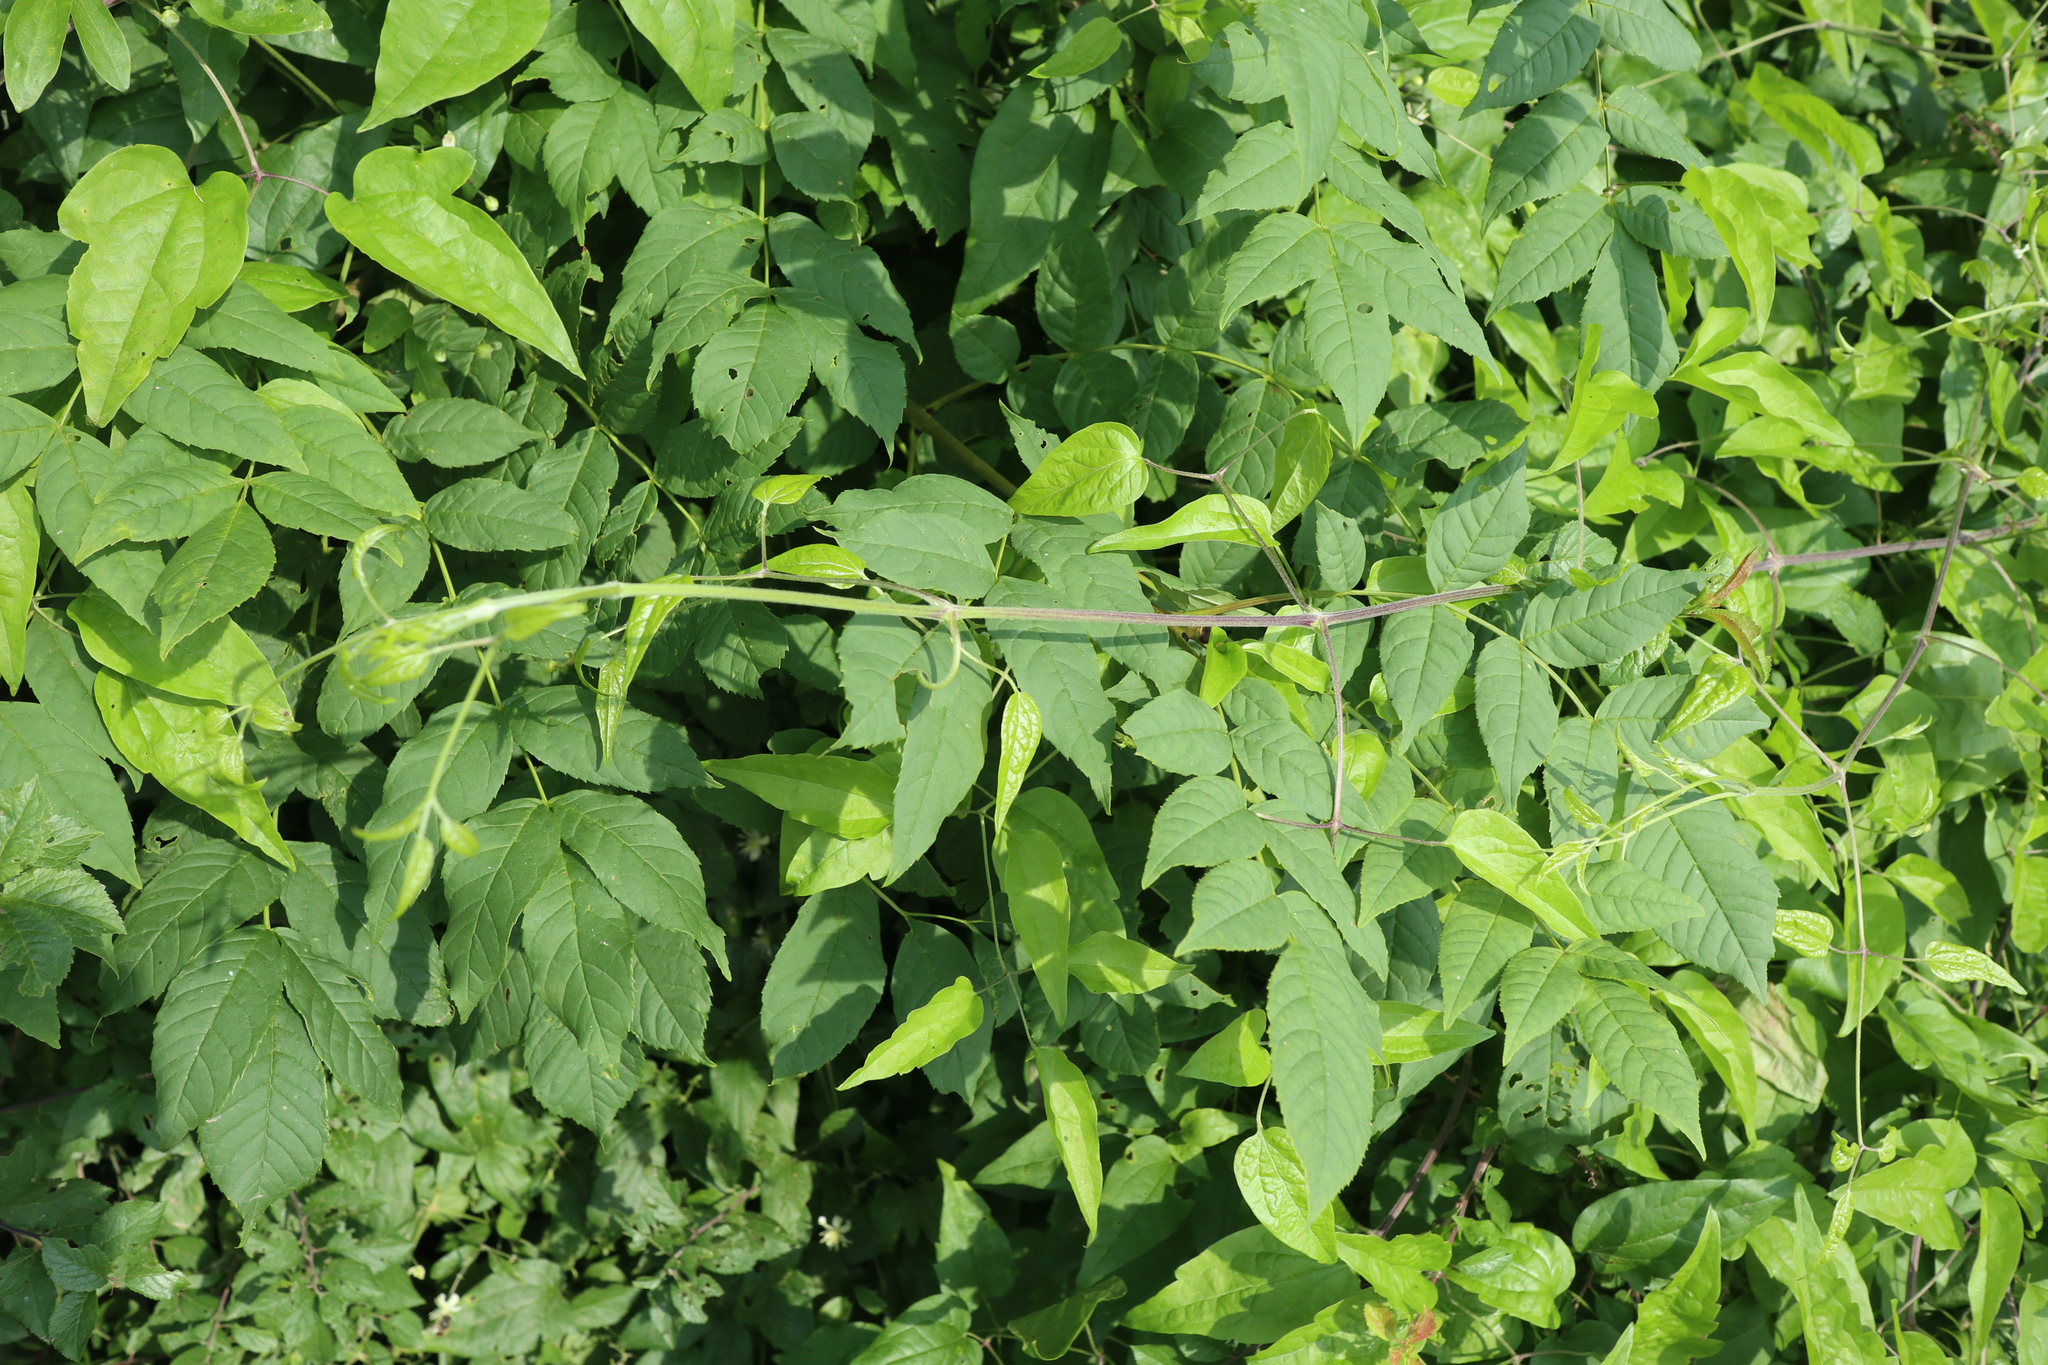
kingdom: Plantae
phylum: Tracheophyta
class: Magnoliopsida
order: Ranunculales
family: Ranunculaceae
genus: Clematis
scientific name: Clematis vitalba
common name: Evergreen clematis
